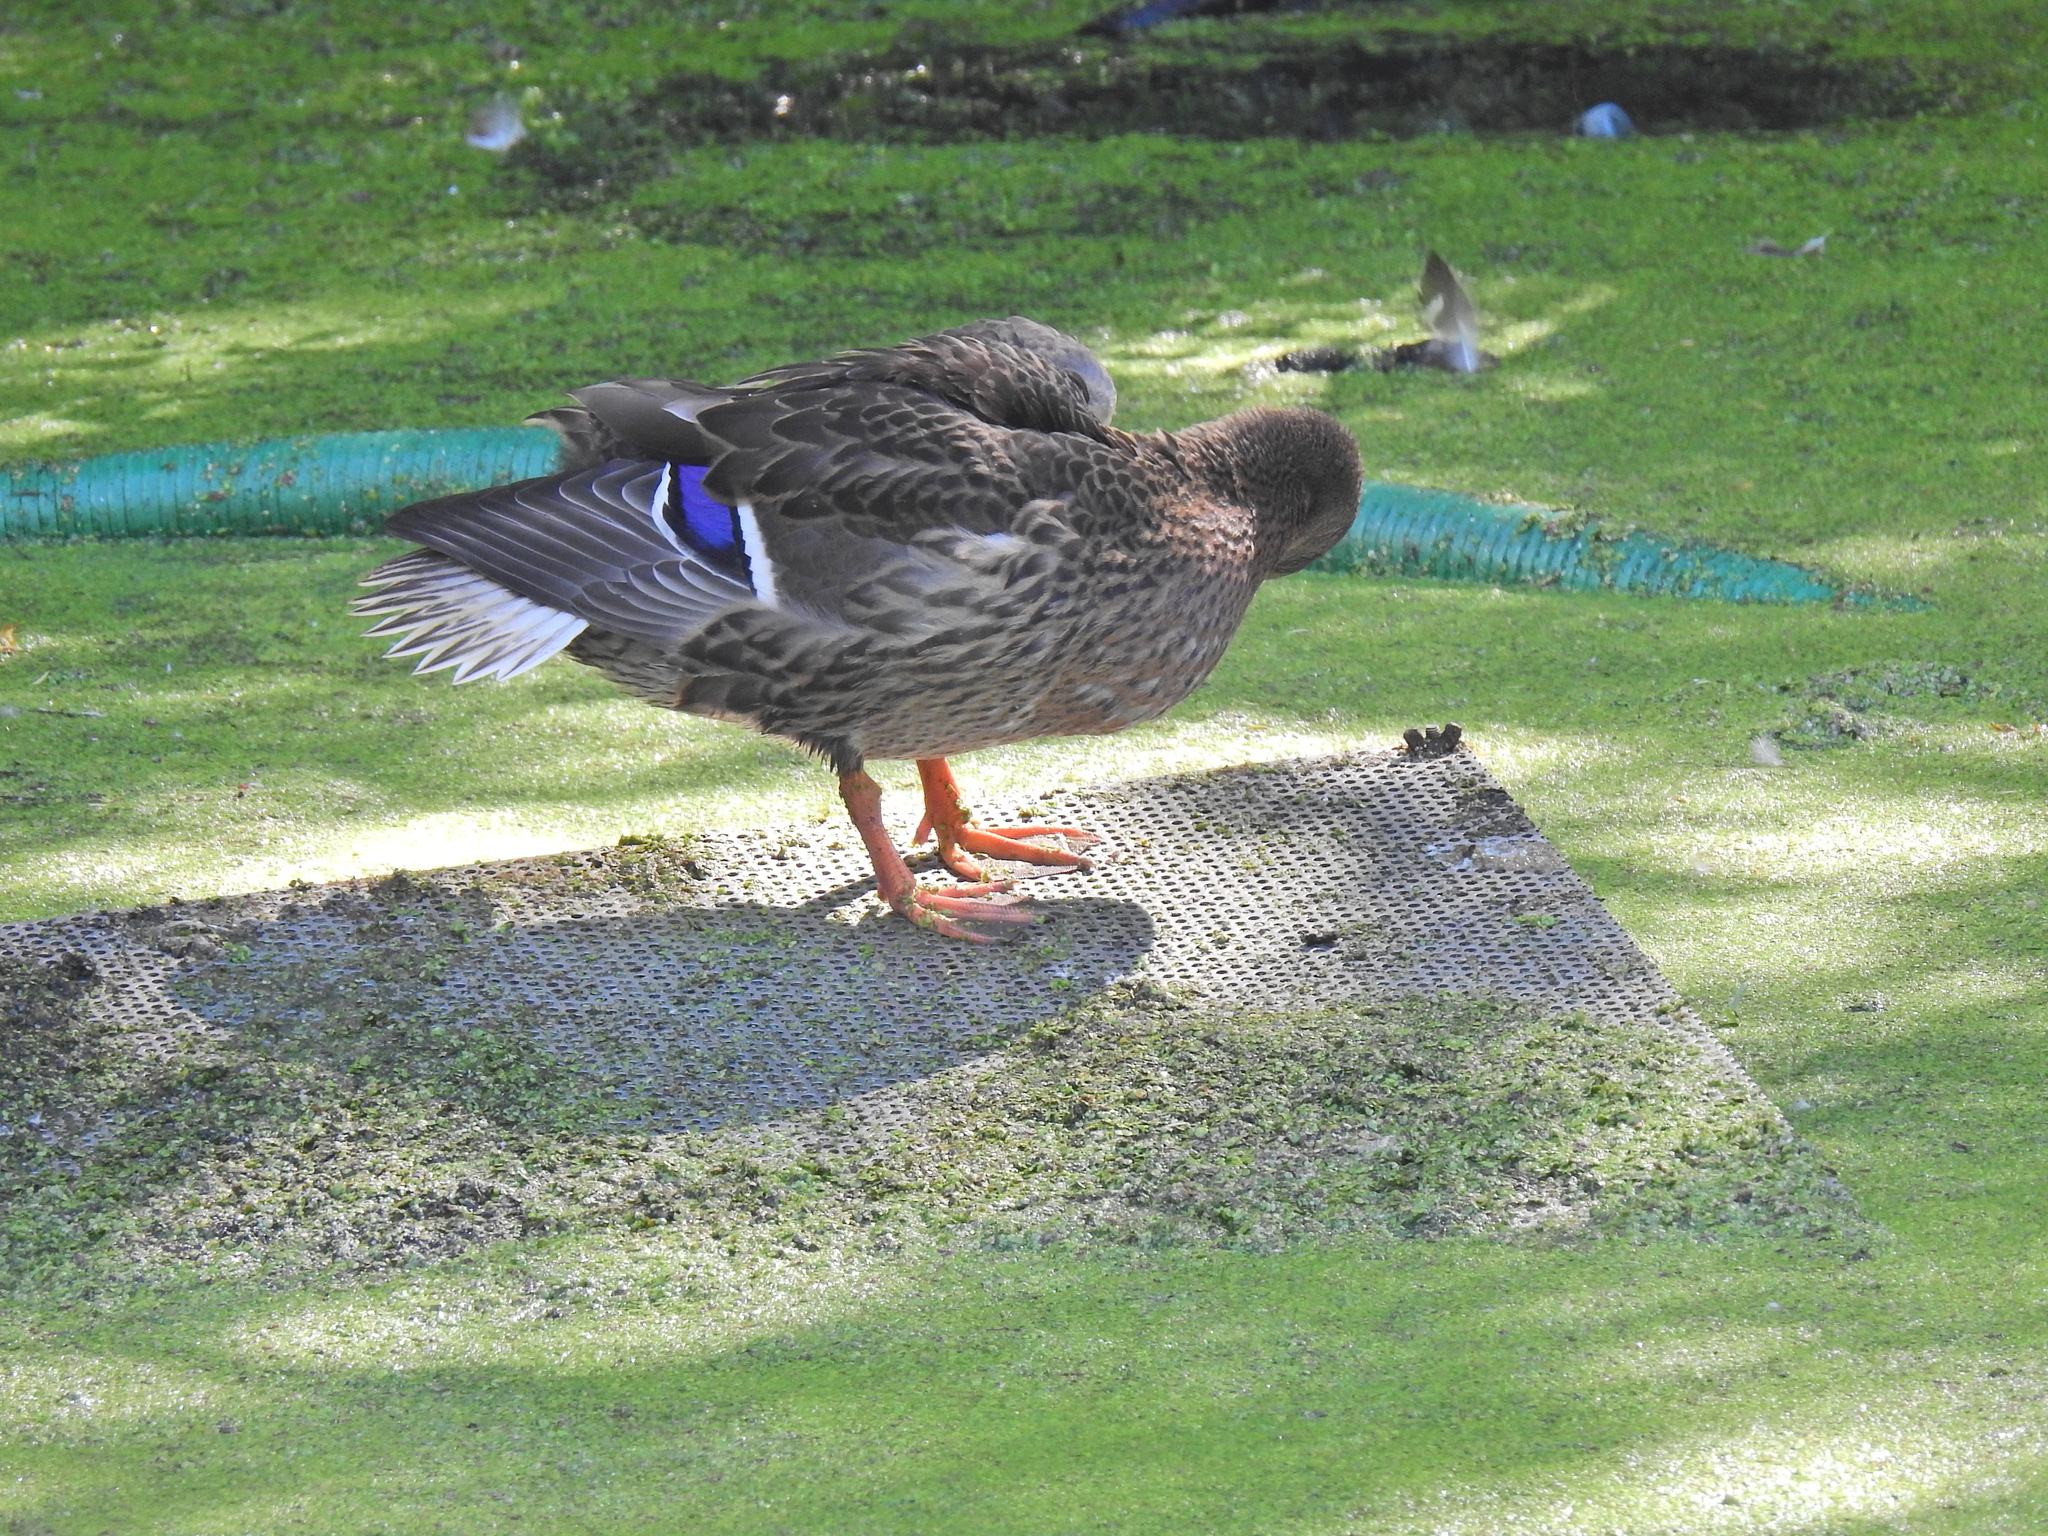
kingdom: Animalia
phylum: Chordata
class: Aves
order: Anseriformes
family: Anatidae
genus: Anas
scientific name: Anas platyrhynchos
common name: Mallard
